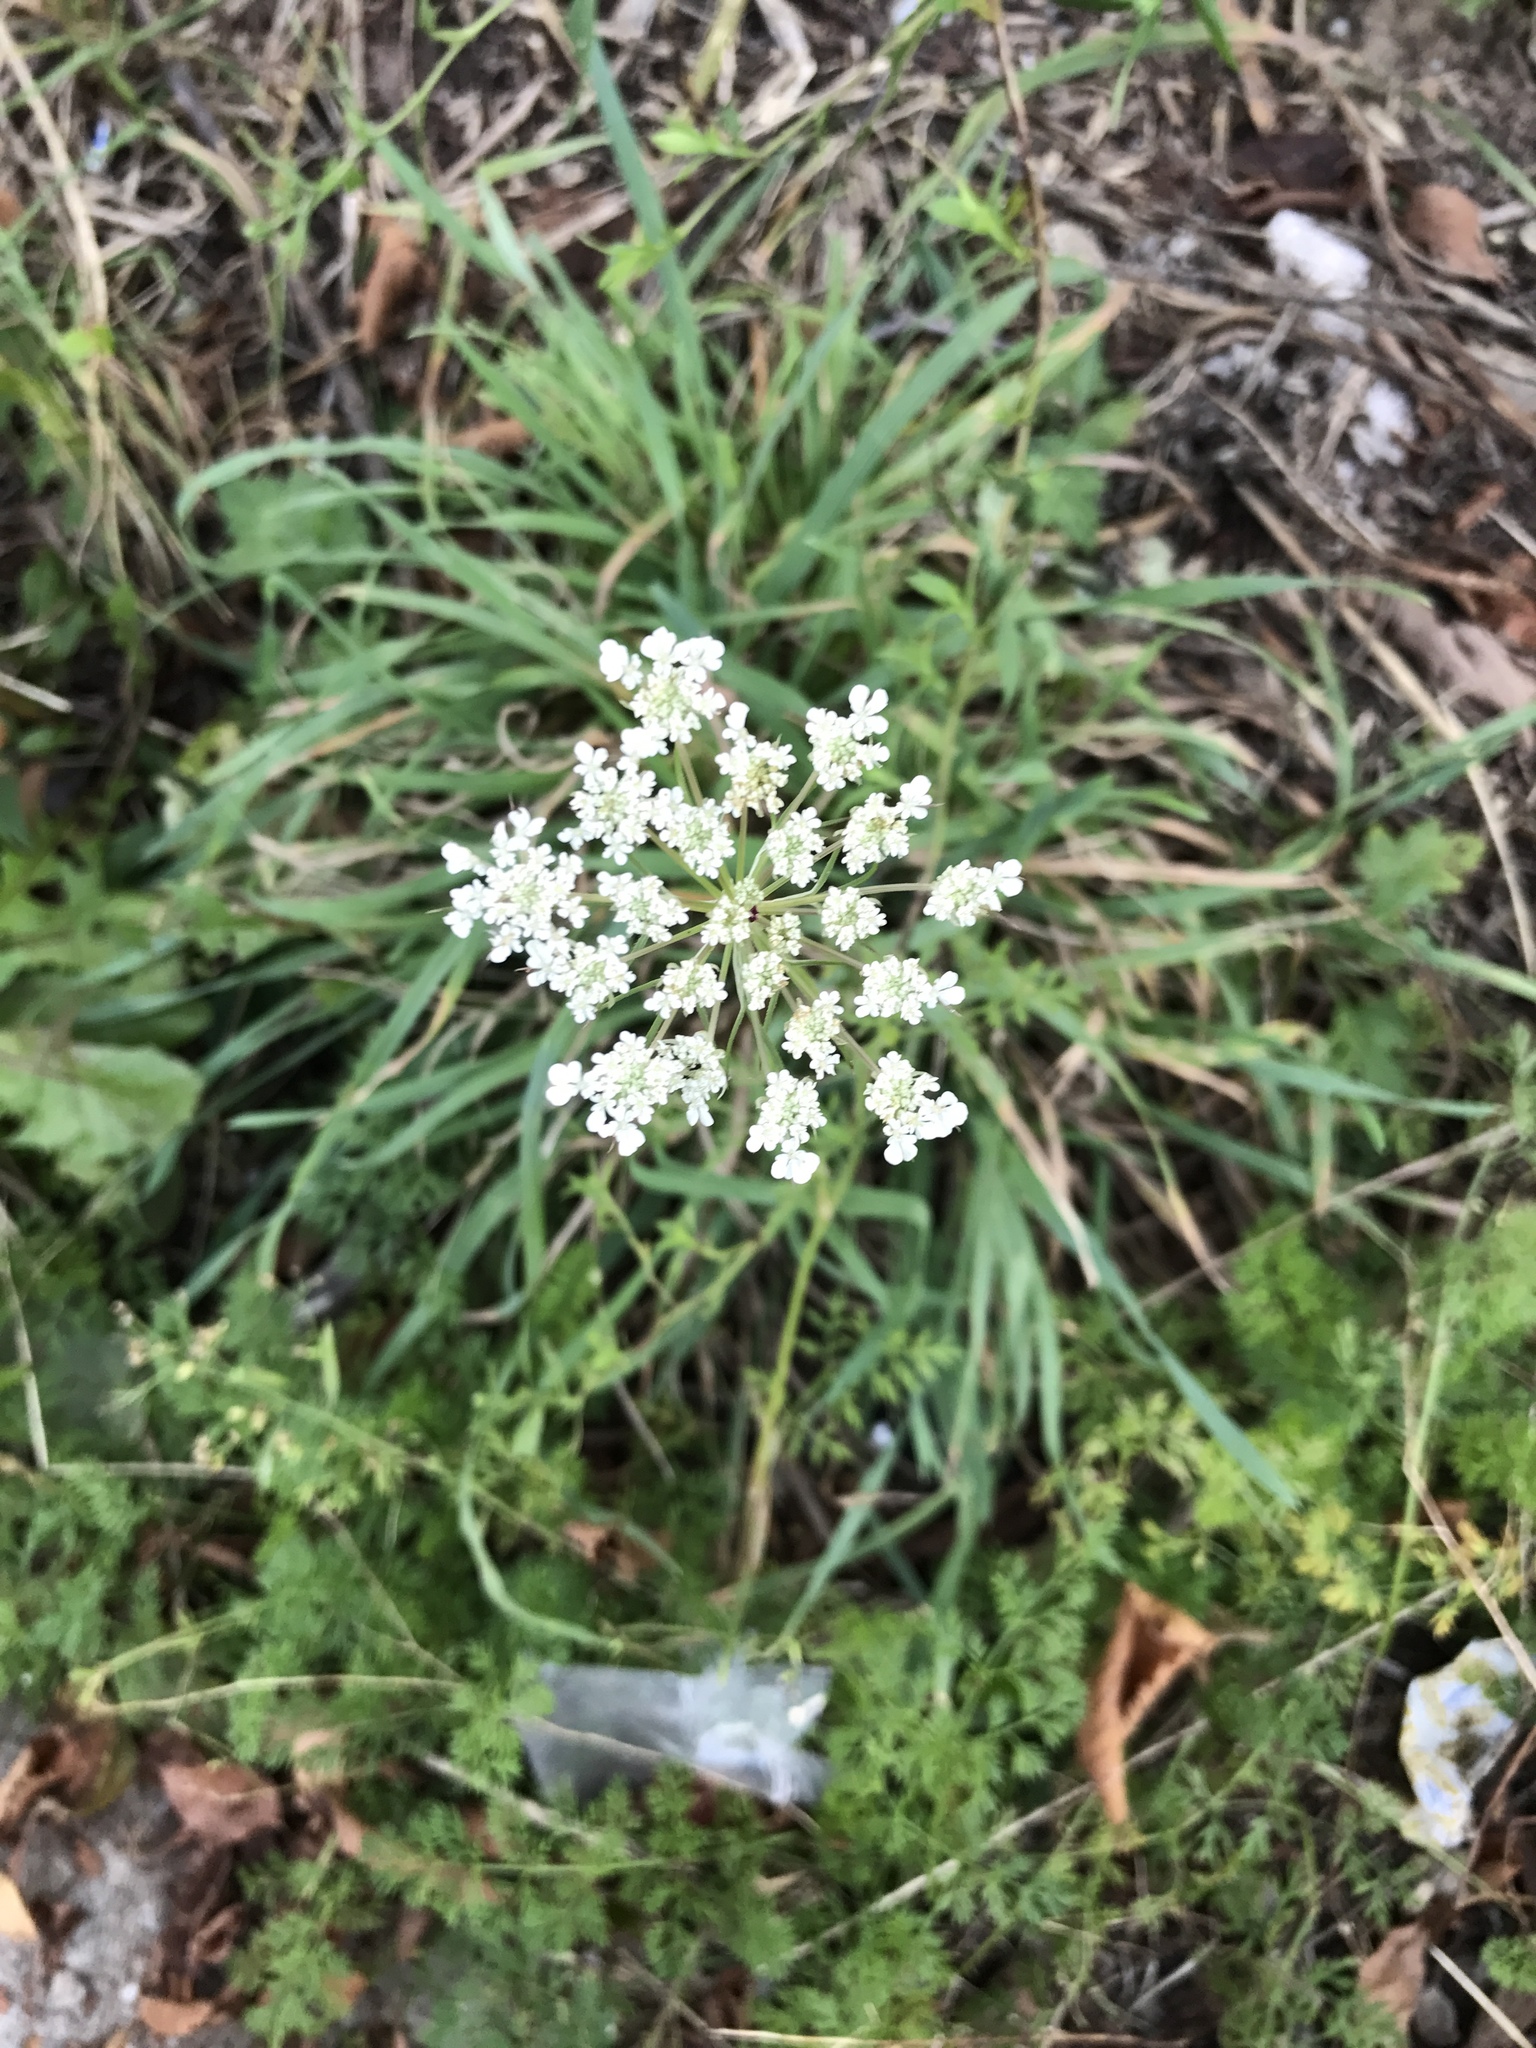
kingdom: Plantae
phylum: Tracheophyta
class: Magnoliopsida
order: Apiales
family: Apiaceae
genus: Daucus
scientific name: Daucus carota
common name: Wild carrot
